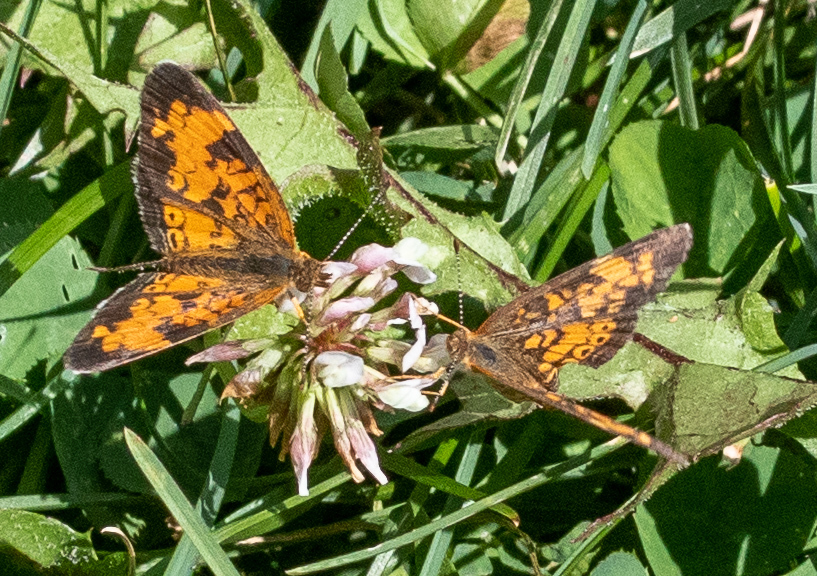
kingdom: Animalia
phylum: Arthropoda
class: Insecta
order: Lepidoptera
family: Nymphalidae
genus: Phyciodes
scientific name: Phyciodes tharos
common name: Pearl crescent
